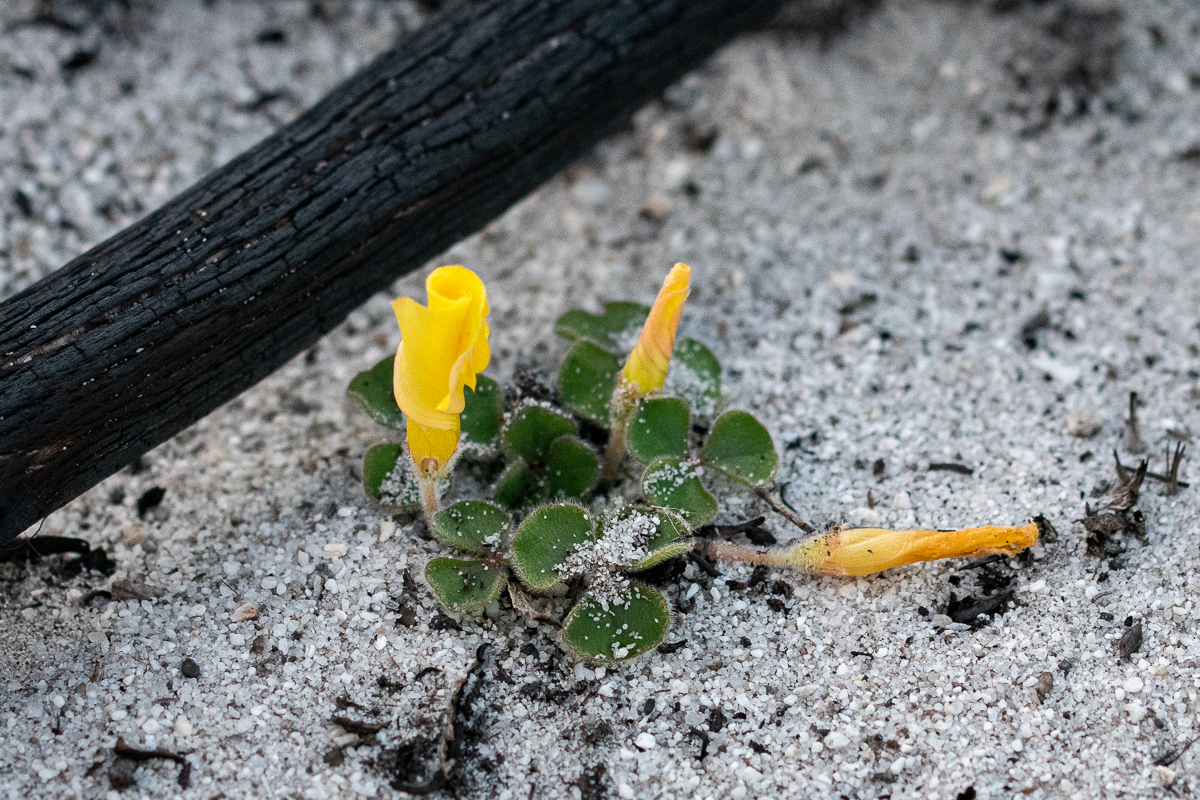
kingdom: Plantae
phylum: Tracheophyta
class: Magnoliopsida
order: Oxalidales
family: Oxalidaceae
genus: Oxalis
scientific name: Oxalis luteola
